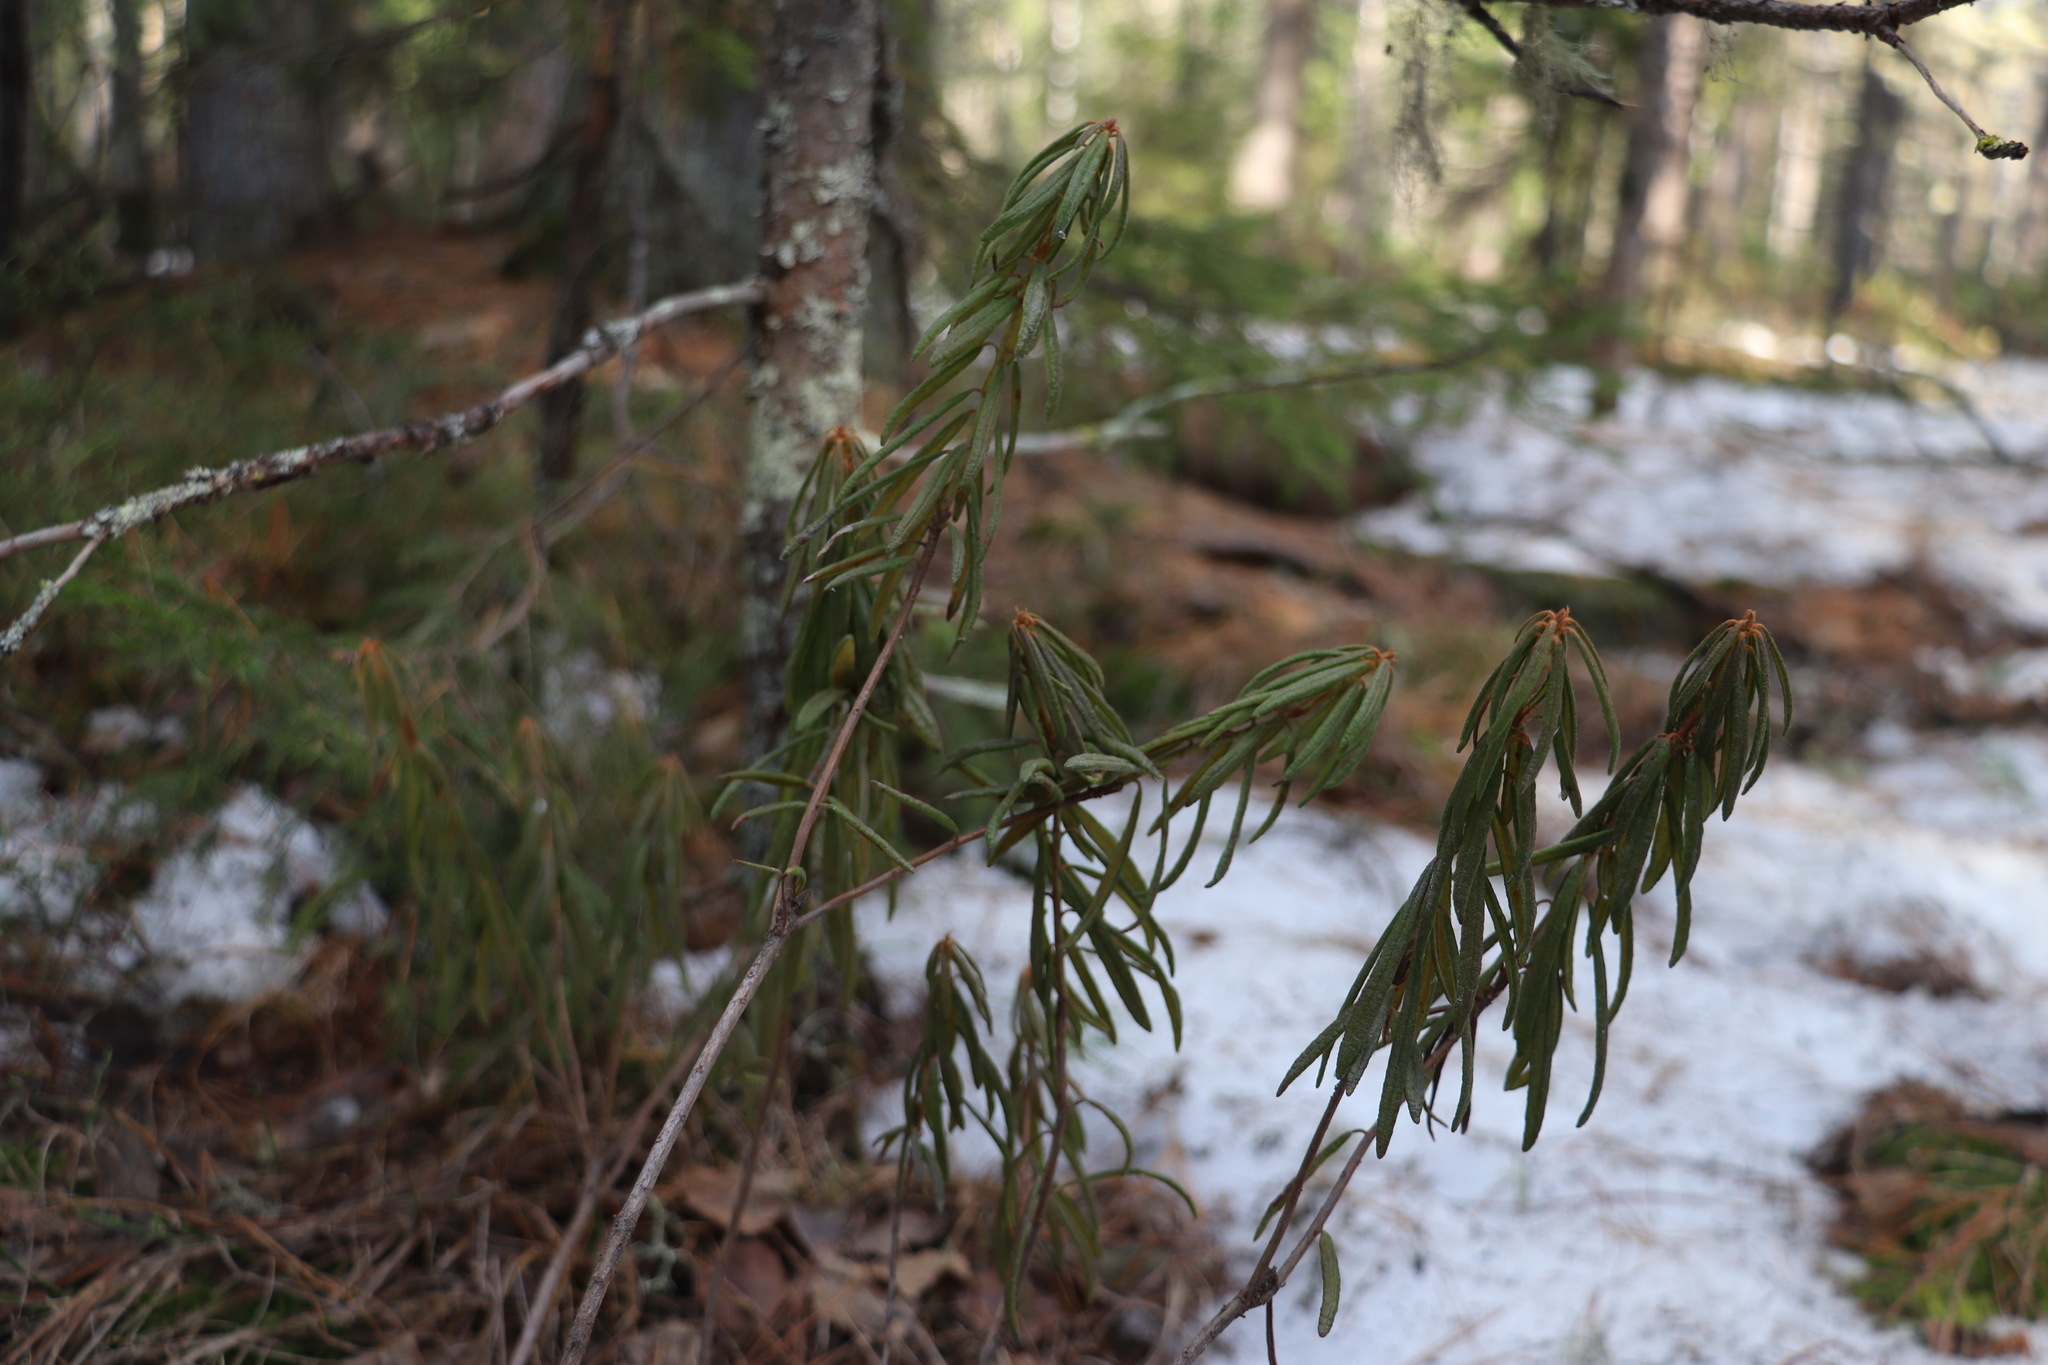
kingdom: Plantae
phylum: Tracheophyta
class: Magnoliopsida
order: Ericales
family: Ericaceae
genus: Rhododendron
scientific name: Rhododendron tomentosum
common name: Marsh labrador tea
